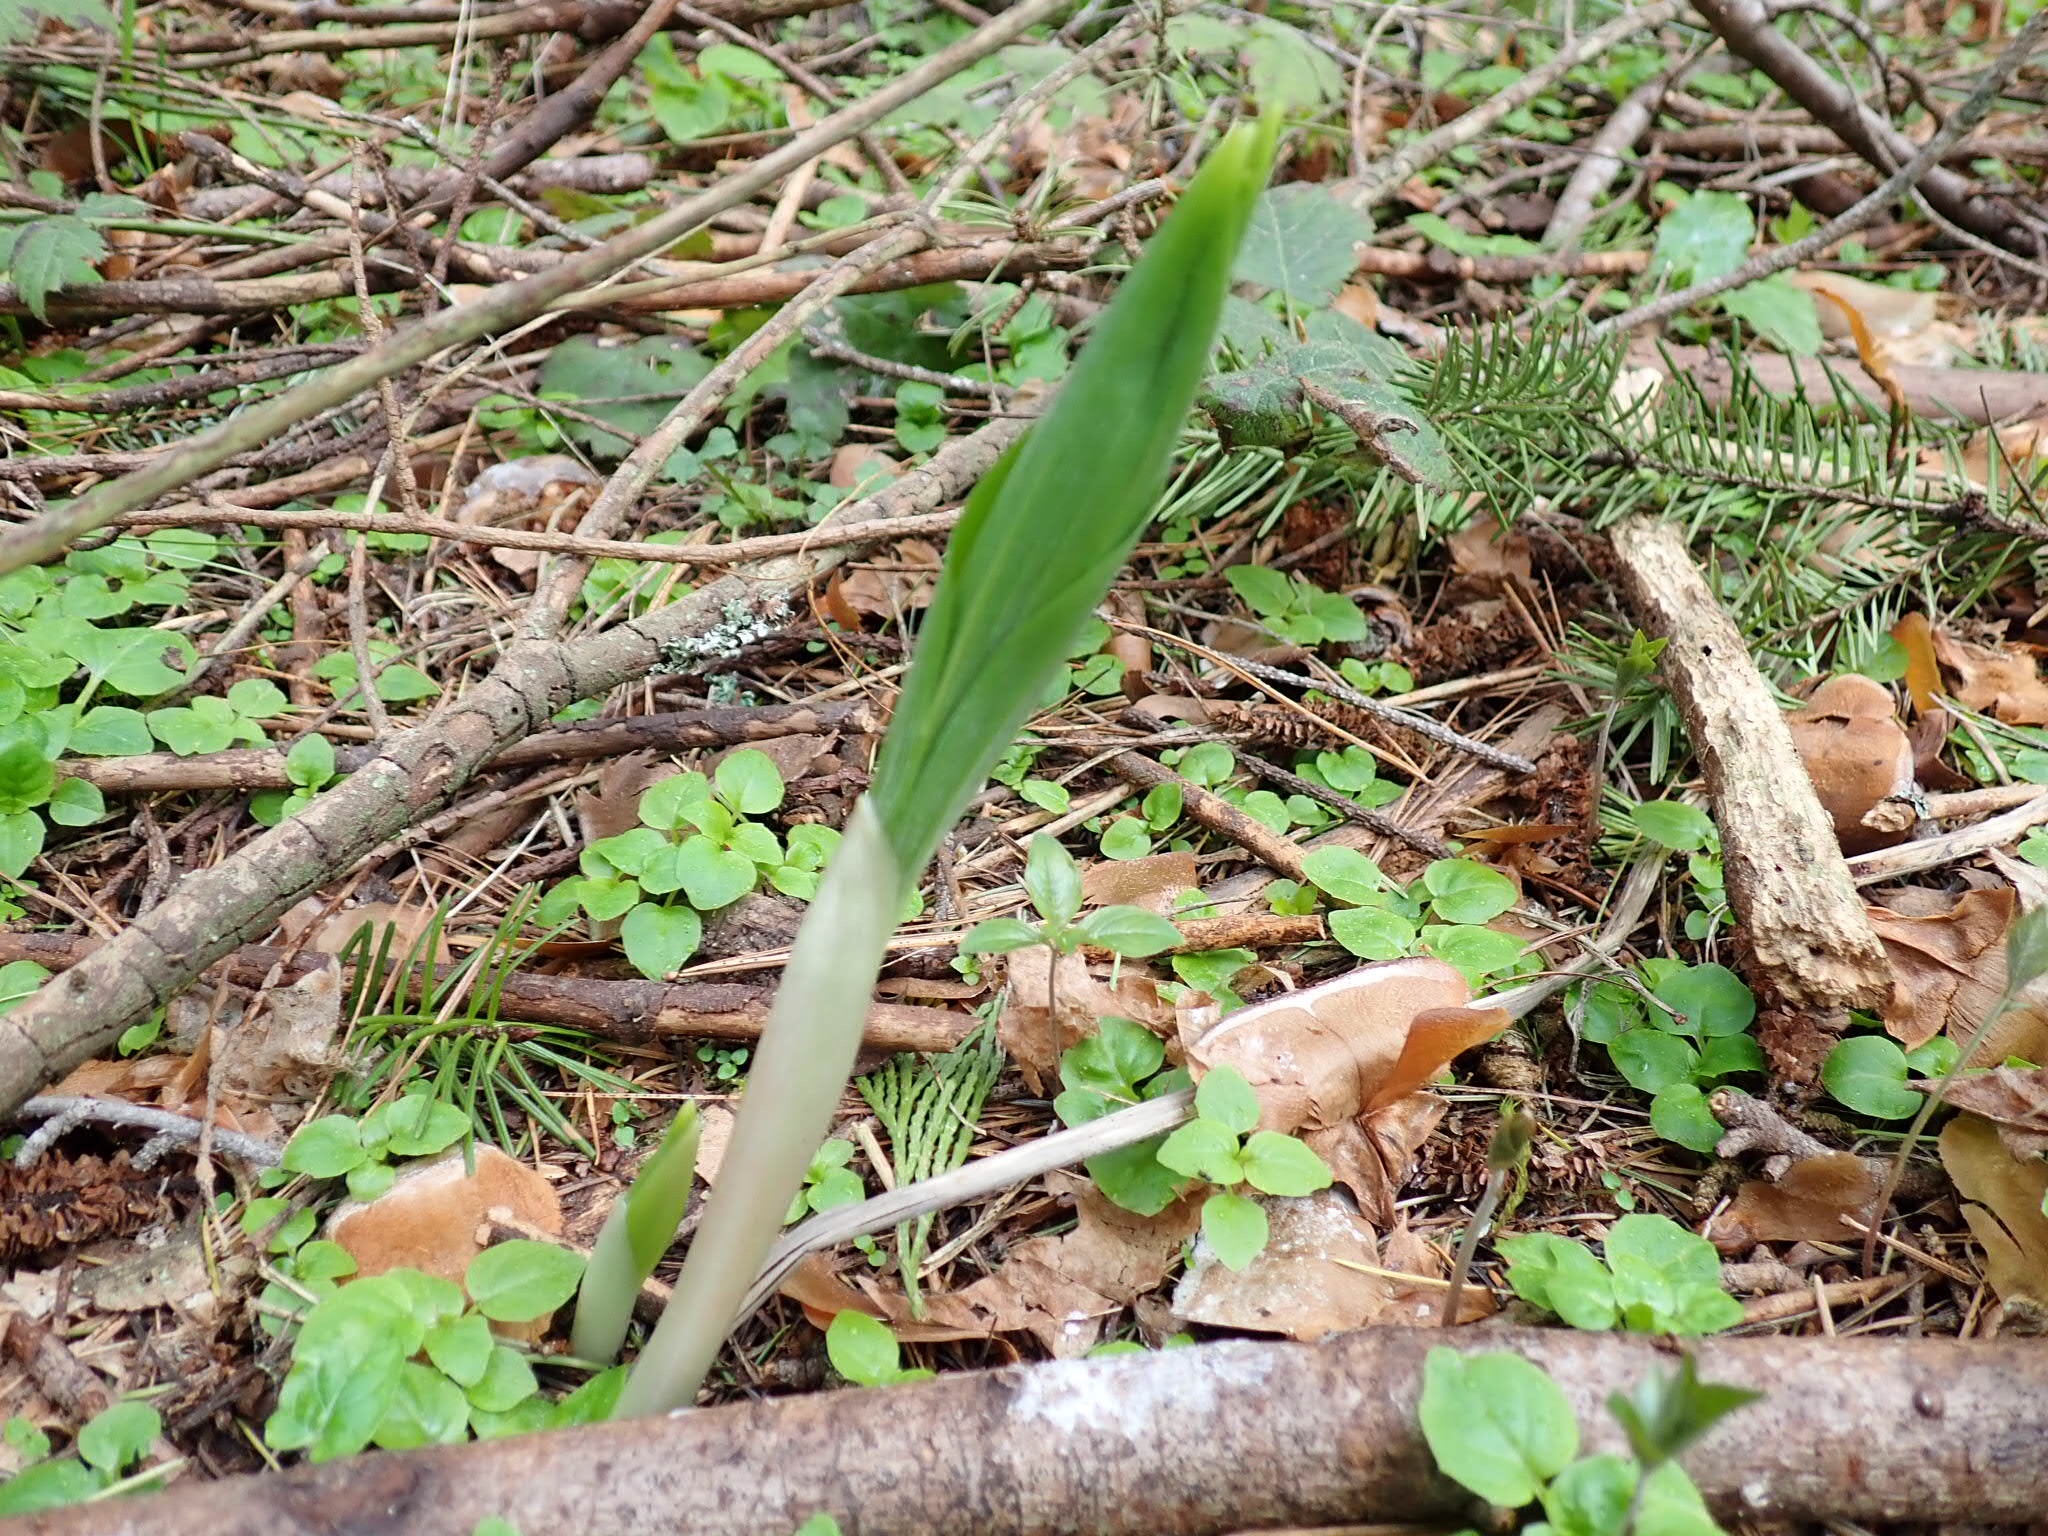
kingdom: Plantae
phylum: Tracheophyta
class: Liliopsida
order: Asparagales
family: Asparagaceae
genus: Maianthemum
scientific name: Maianthemum racemosum
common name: False spikenard
